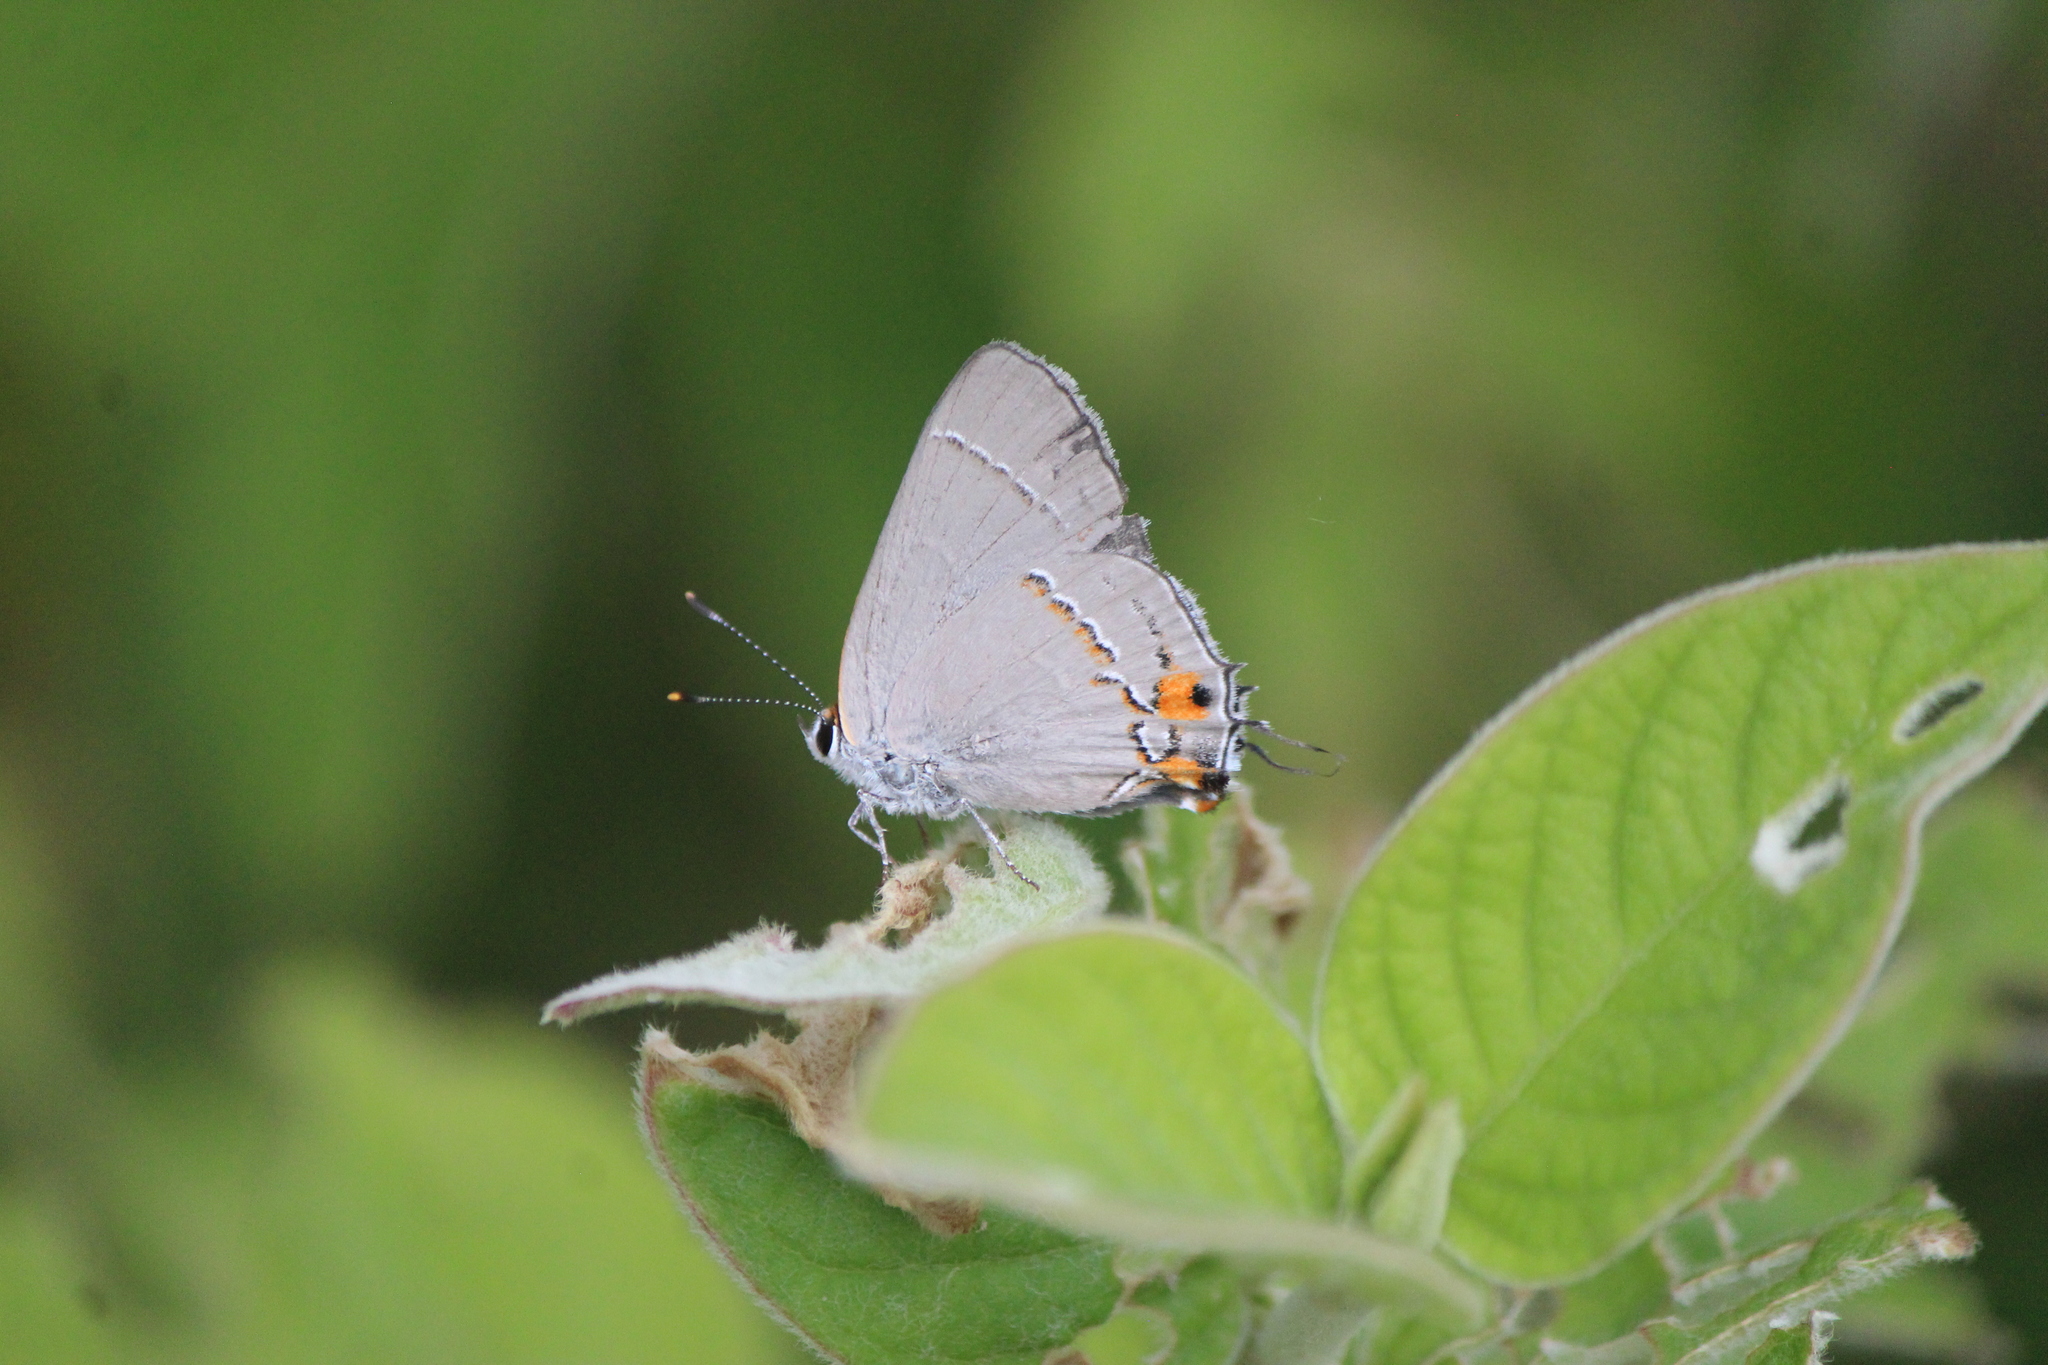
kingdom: Animalia
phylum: Arthropoda
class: Insecta
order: Lepidoptera
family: Lycaenidae
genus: Strymon
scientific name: Strymon melinus
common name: Gray hairstreak
